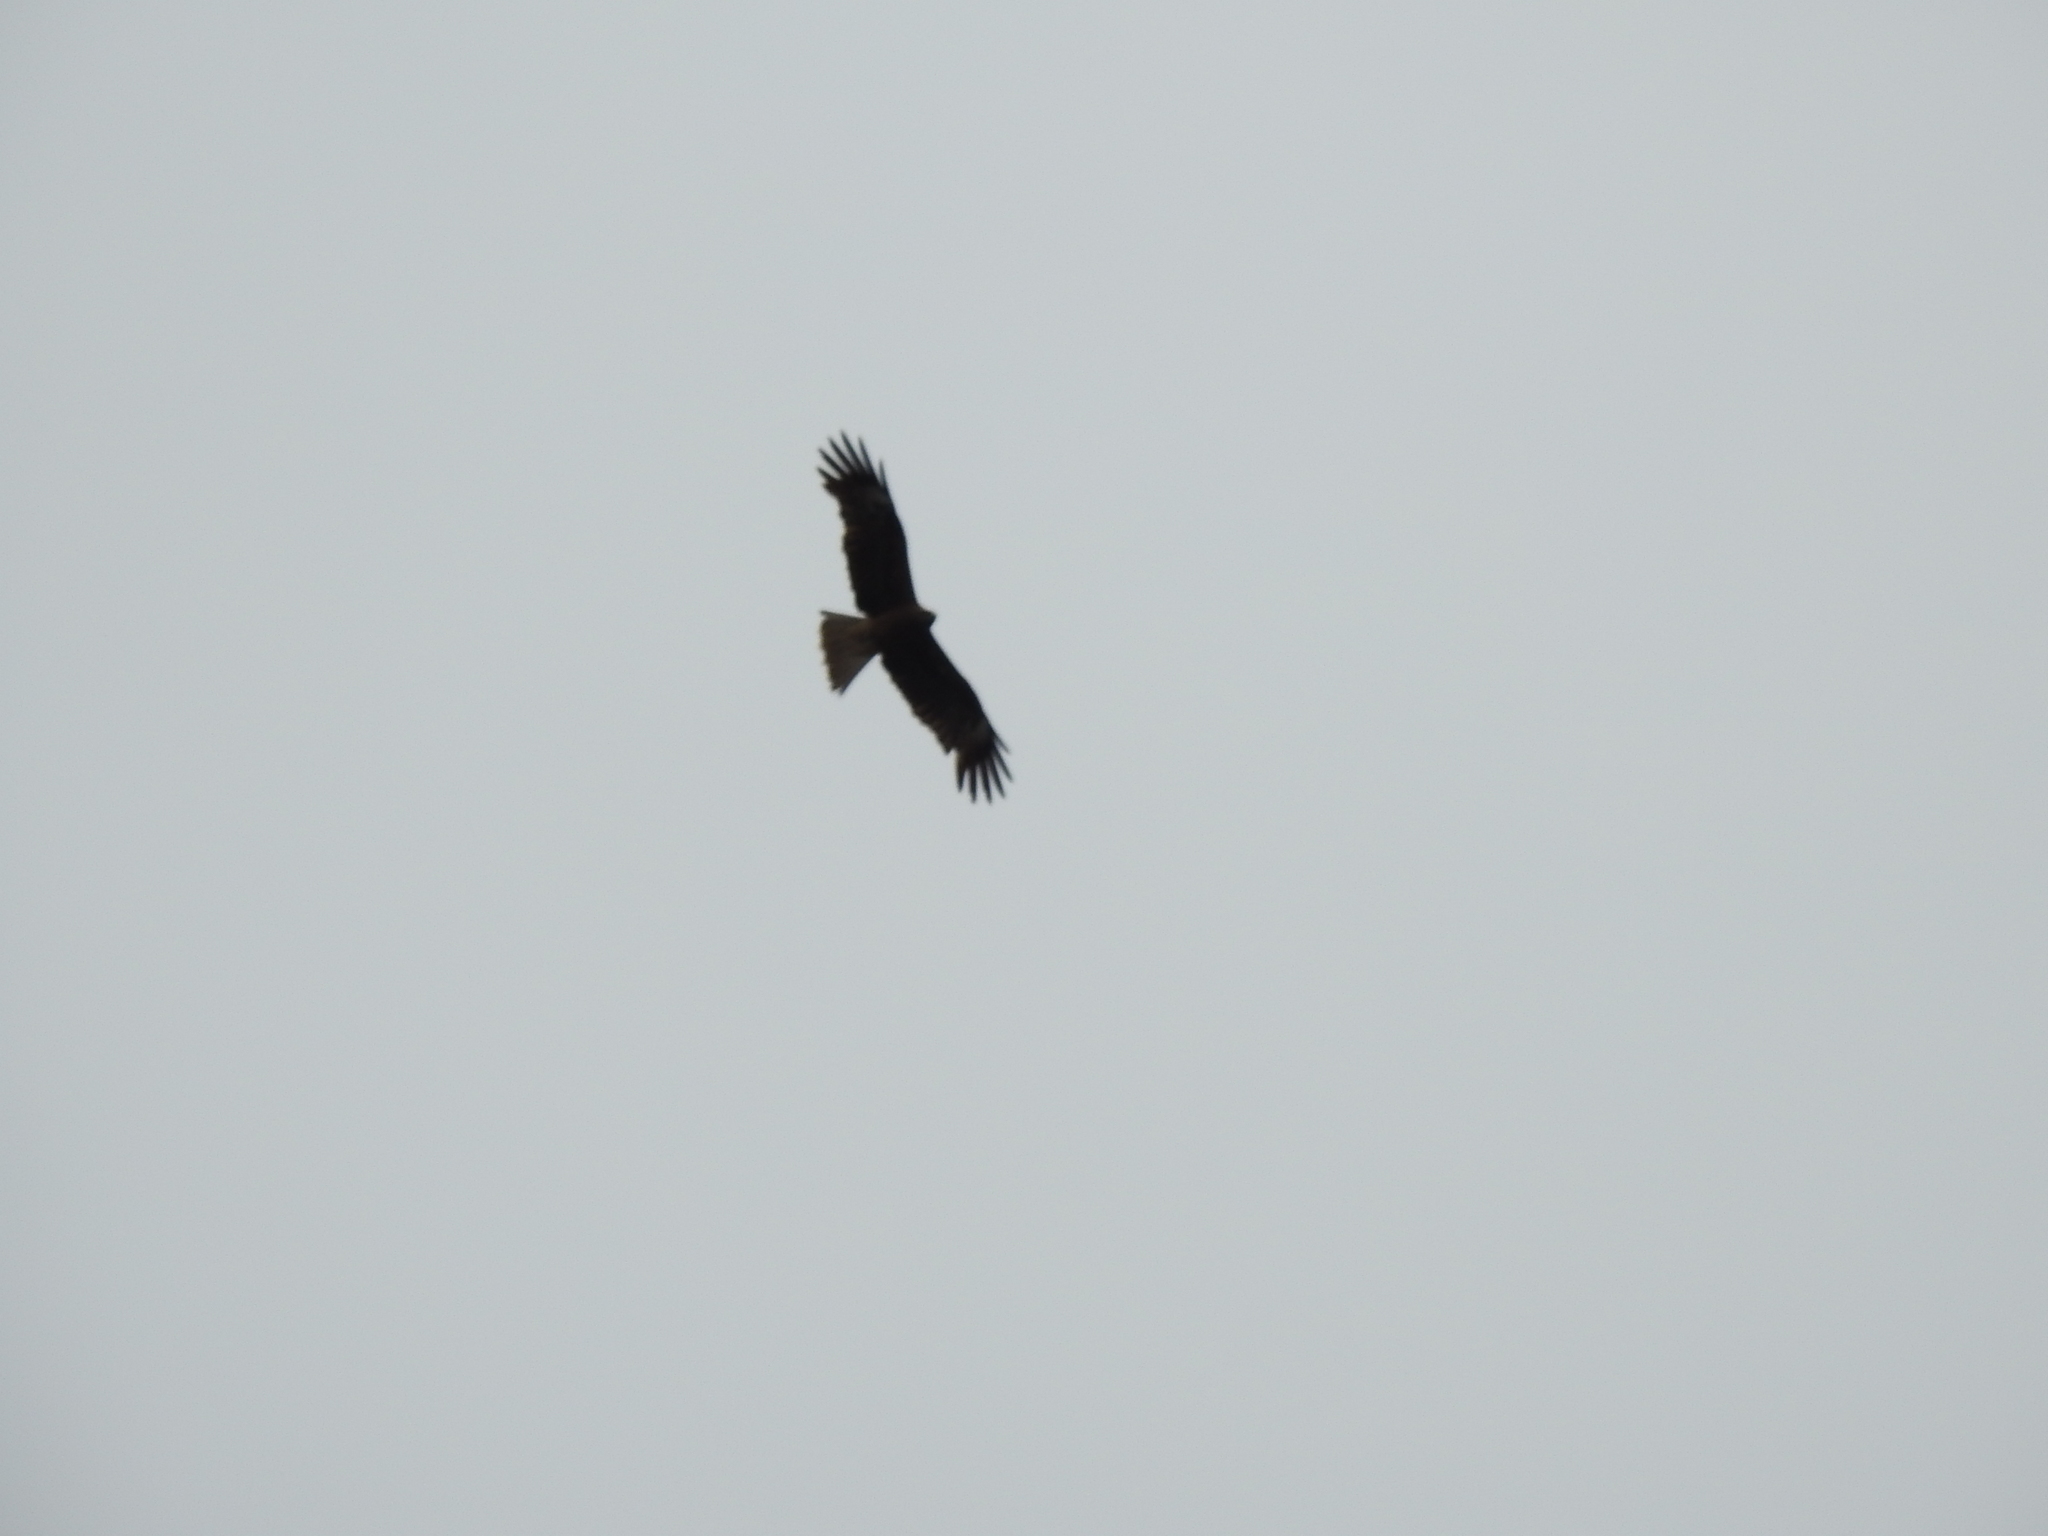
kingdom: Animalia
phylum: Chordata
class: Aves
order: Accipitriformes
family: Accipitridae
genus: Milvus
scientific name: Milvus migrans
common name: Black kite
